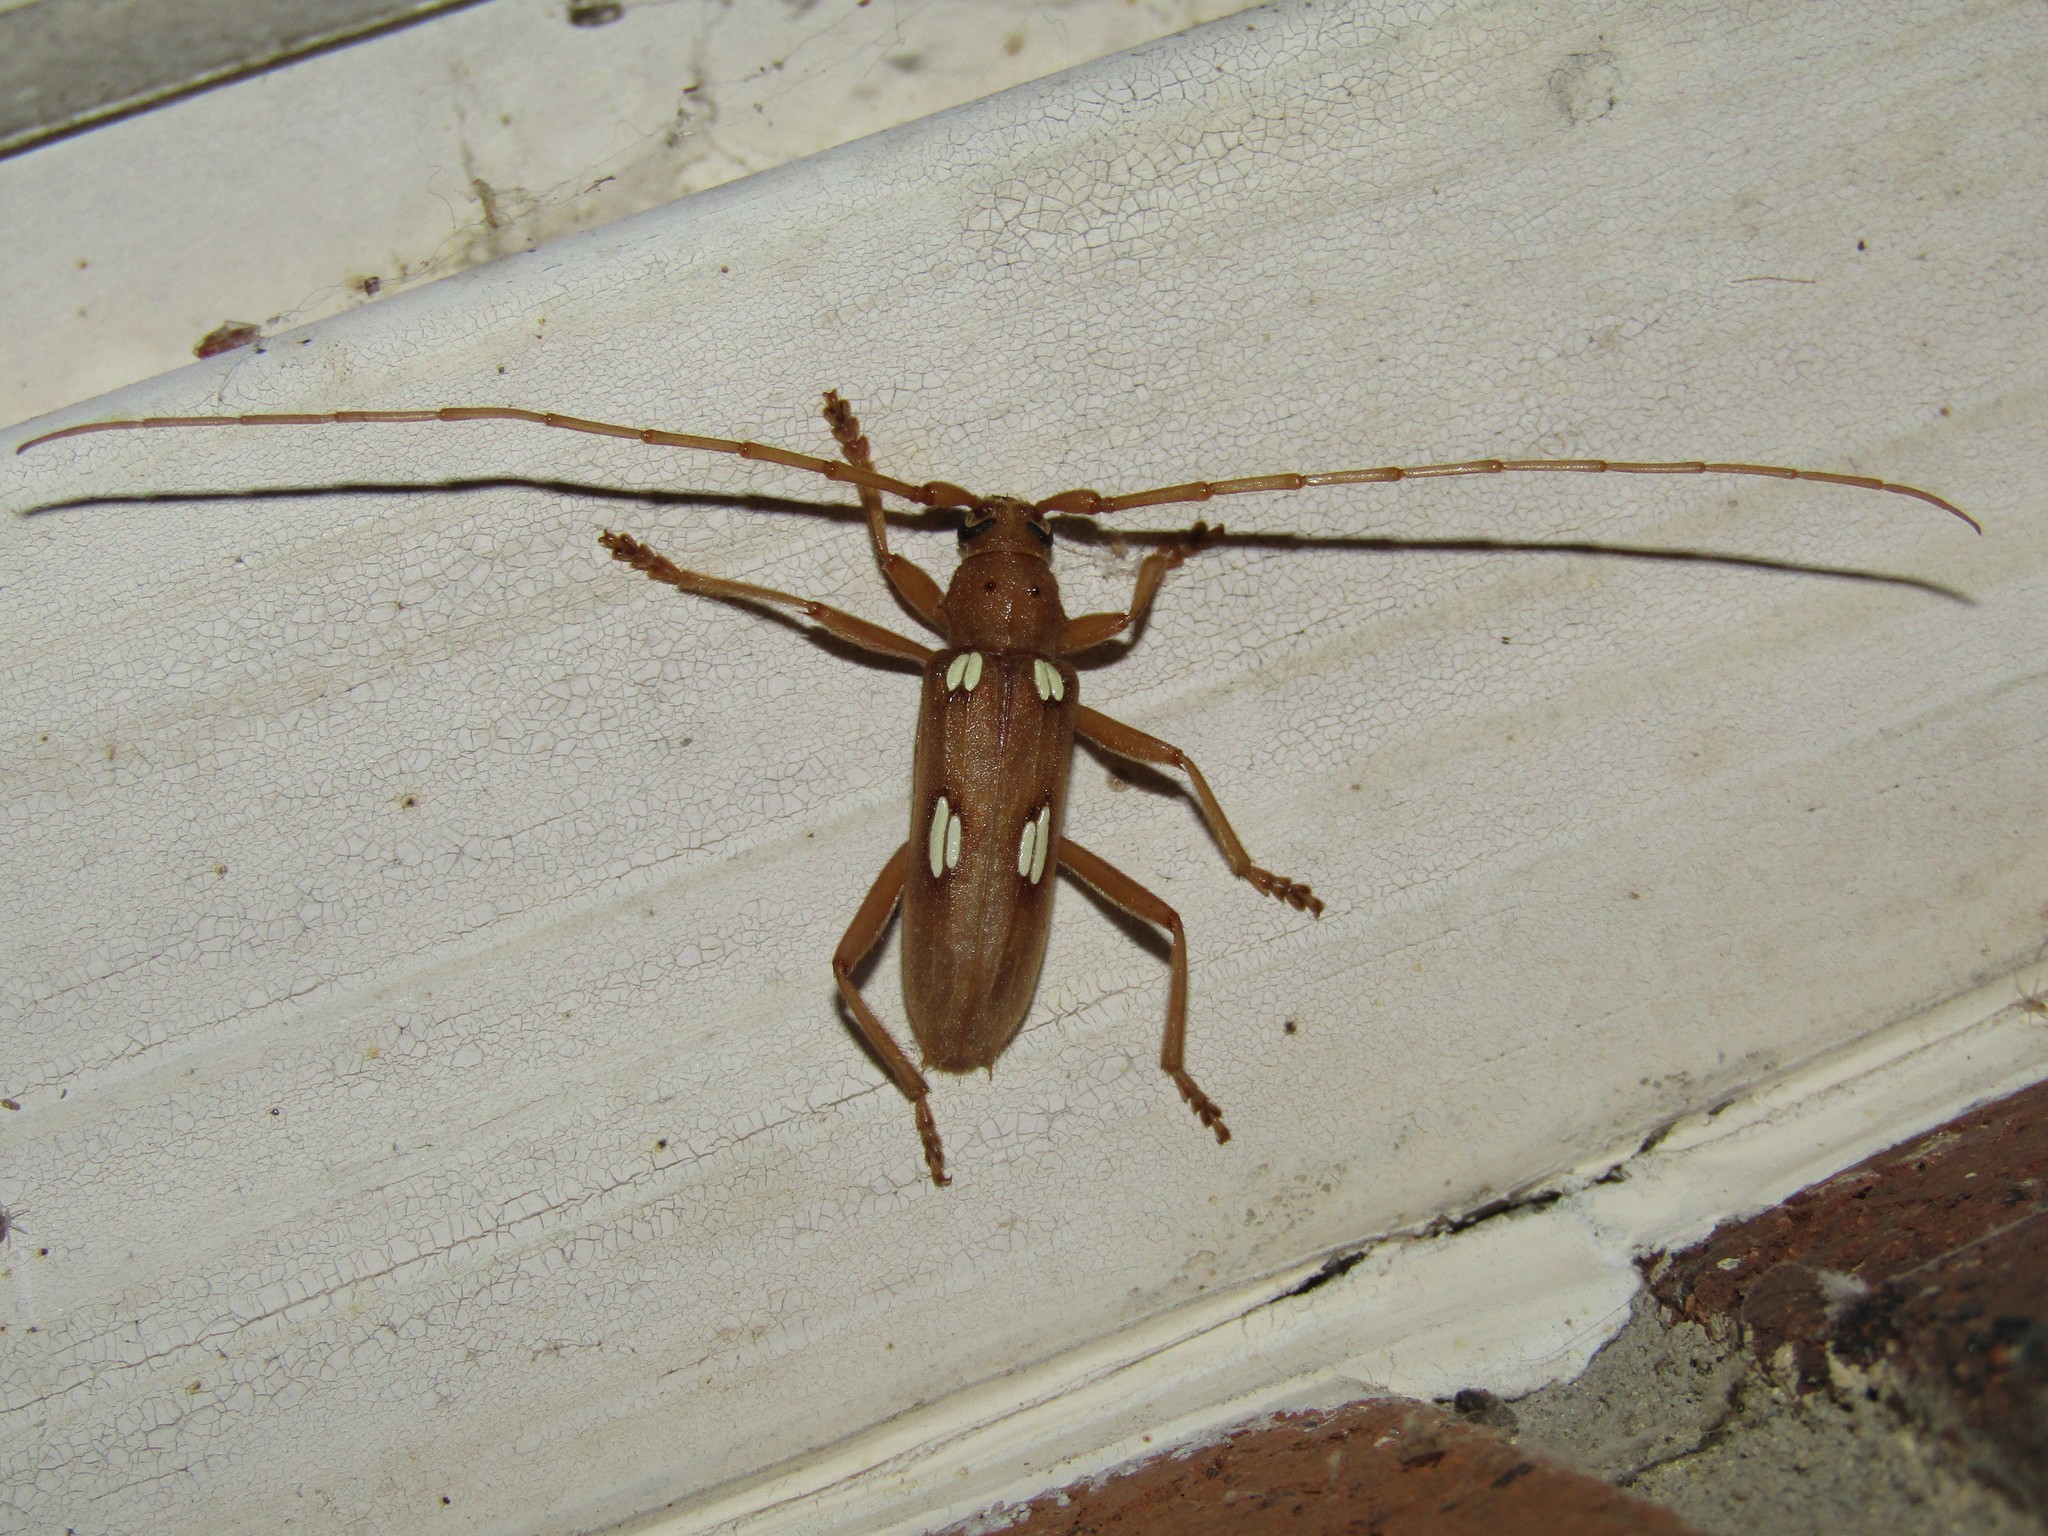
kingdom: Animalia
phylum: Arthropoda
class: Insecta
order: Coleoptera
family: Cerambycidae
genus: Eburia
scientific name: Eburia quadrigeminata
